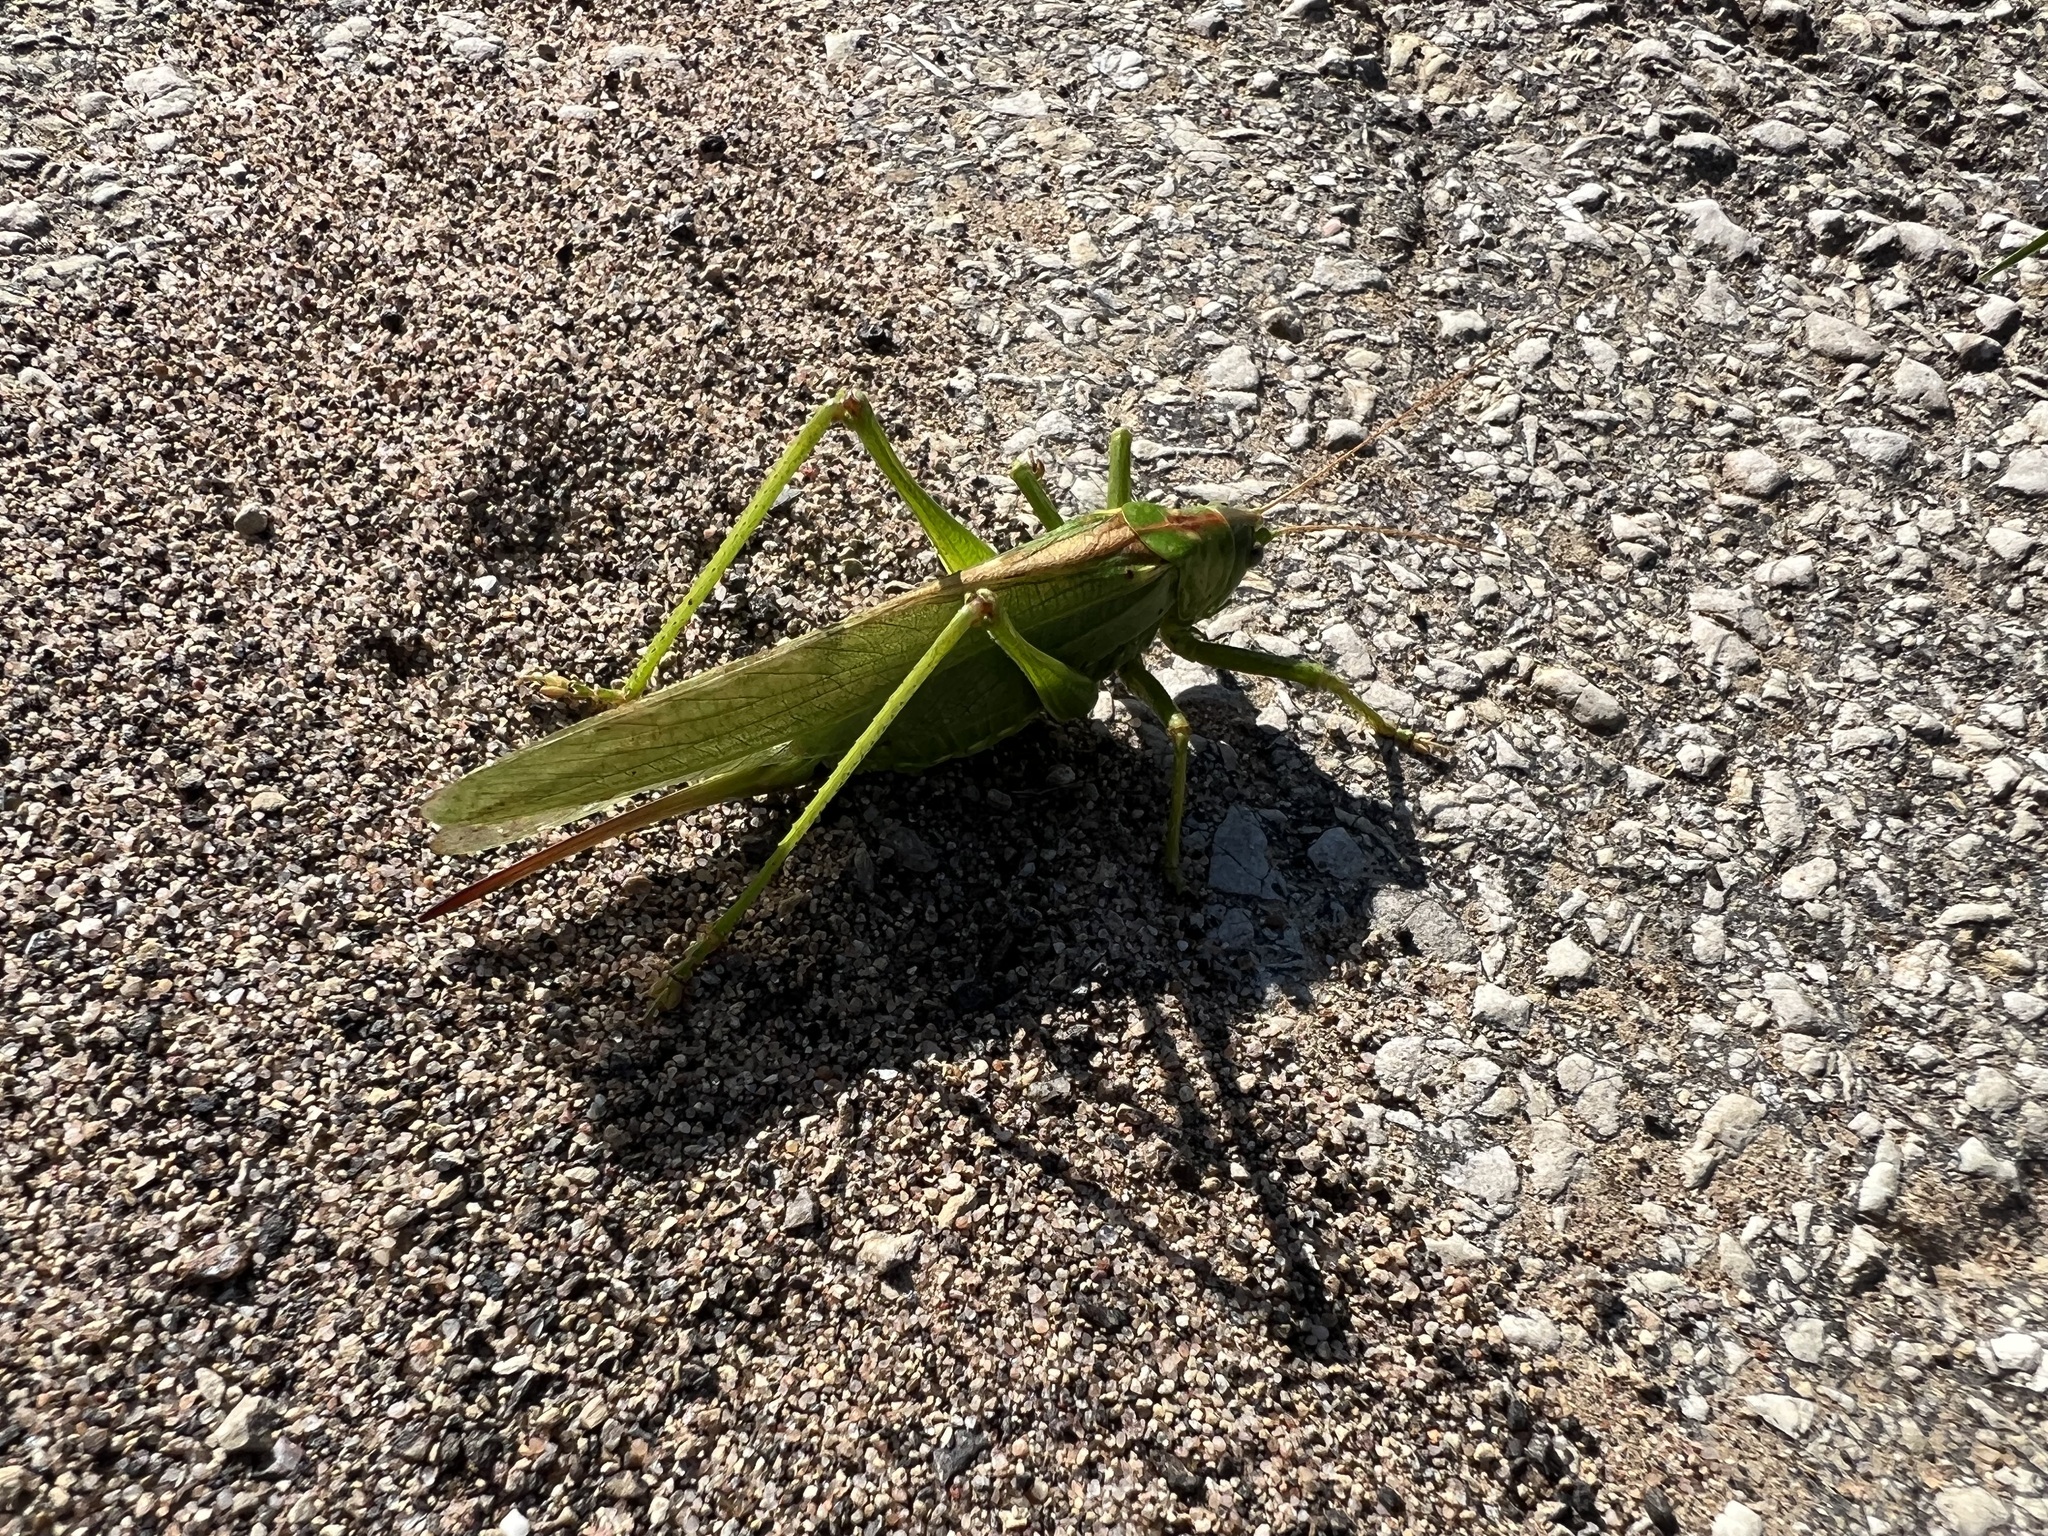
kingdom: Animalia
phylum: Arthropoda
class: Insecta
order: Orthoptera
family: Tettigoniidae
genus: Tettigonia
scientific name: Tettigonia viridissima
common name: Great green bush-cricket
